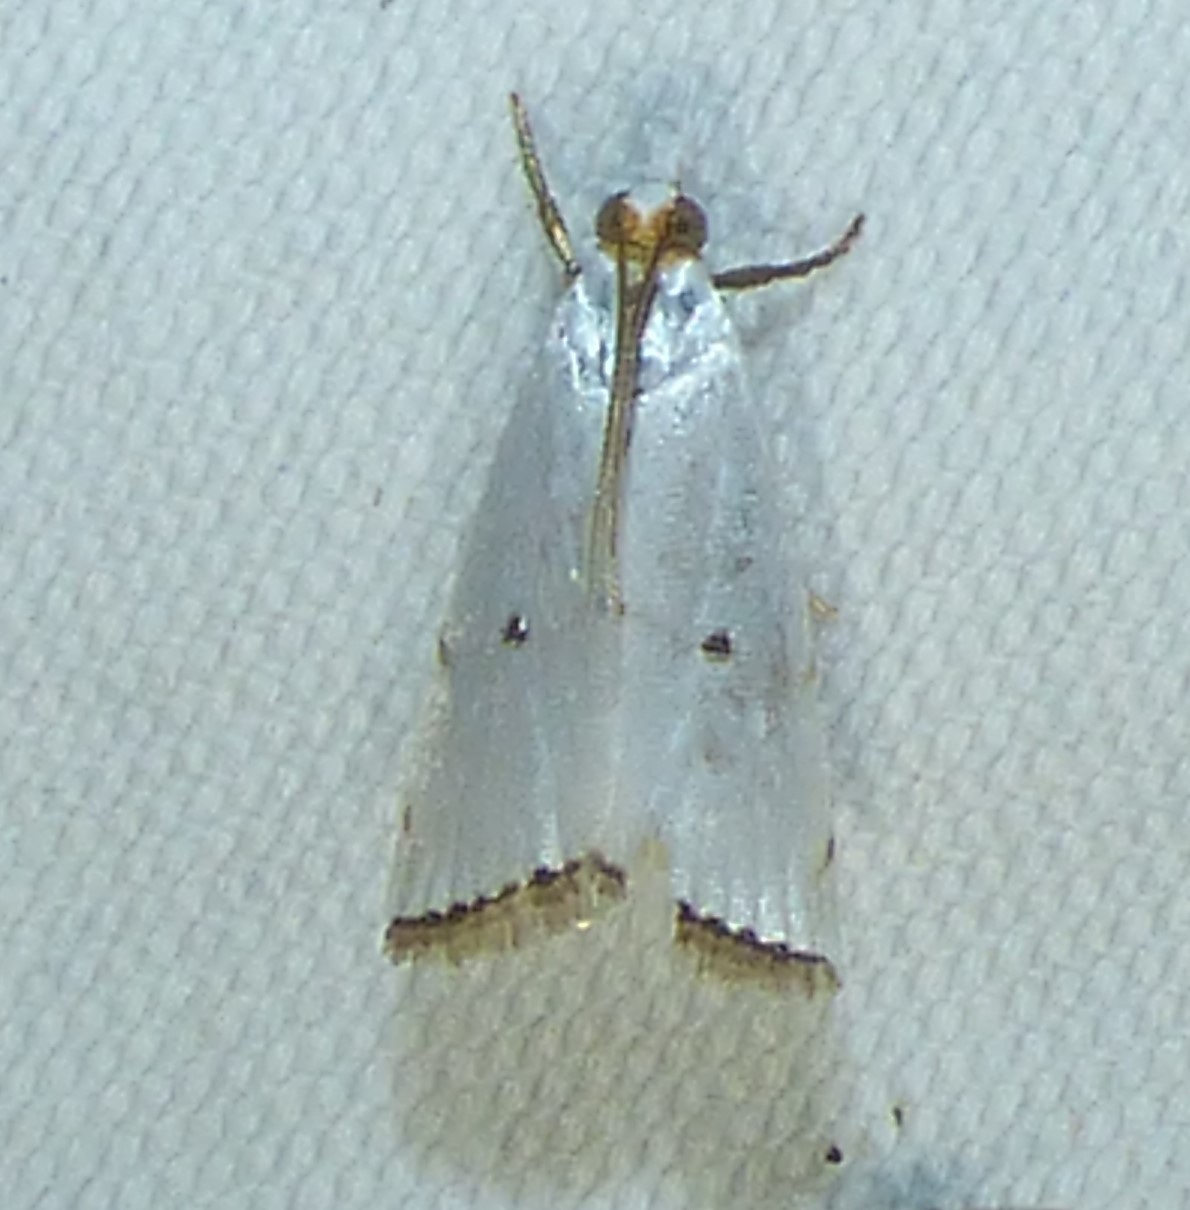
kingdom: Animalia
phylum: Arthropoda
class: Insecta
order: Lepidoptera
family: Crambidae
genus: Argyria
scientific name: Argyria pusillalis
